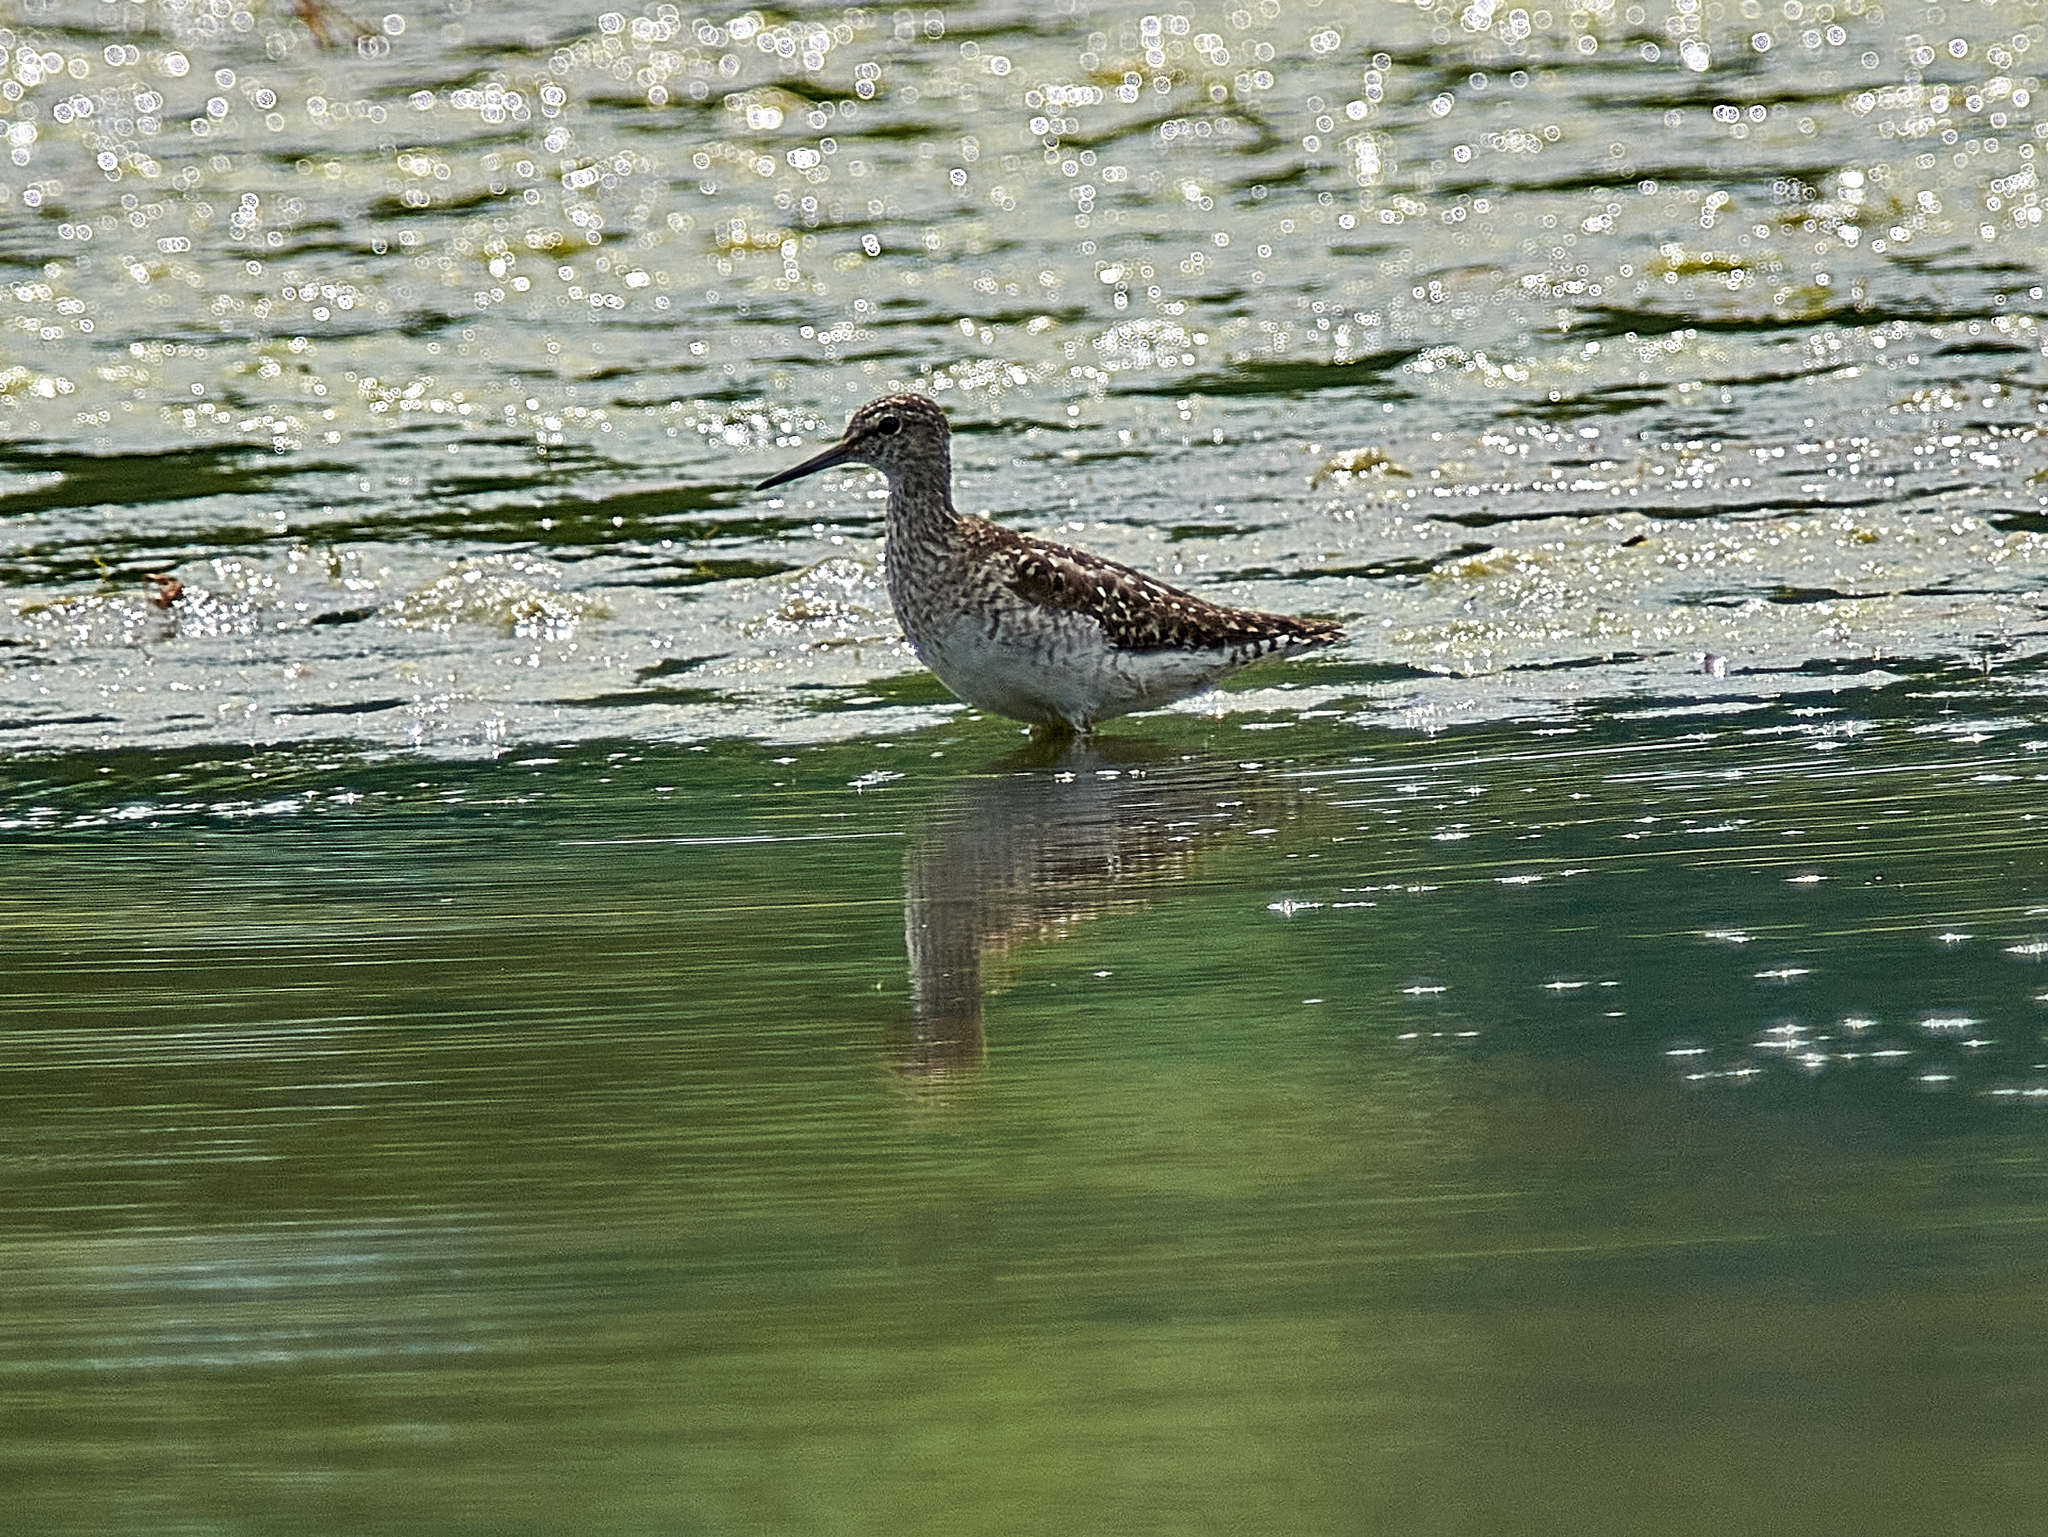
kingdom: Animalia
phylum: Chordata
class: Aves
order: Charadriiformes
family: Scolopacidae
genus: Tringa
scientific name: Tringa glareola
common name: Wood sandpiper
